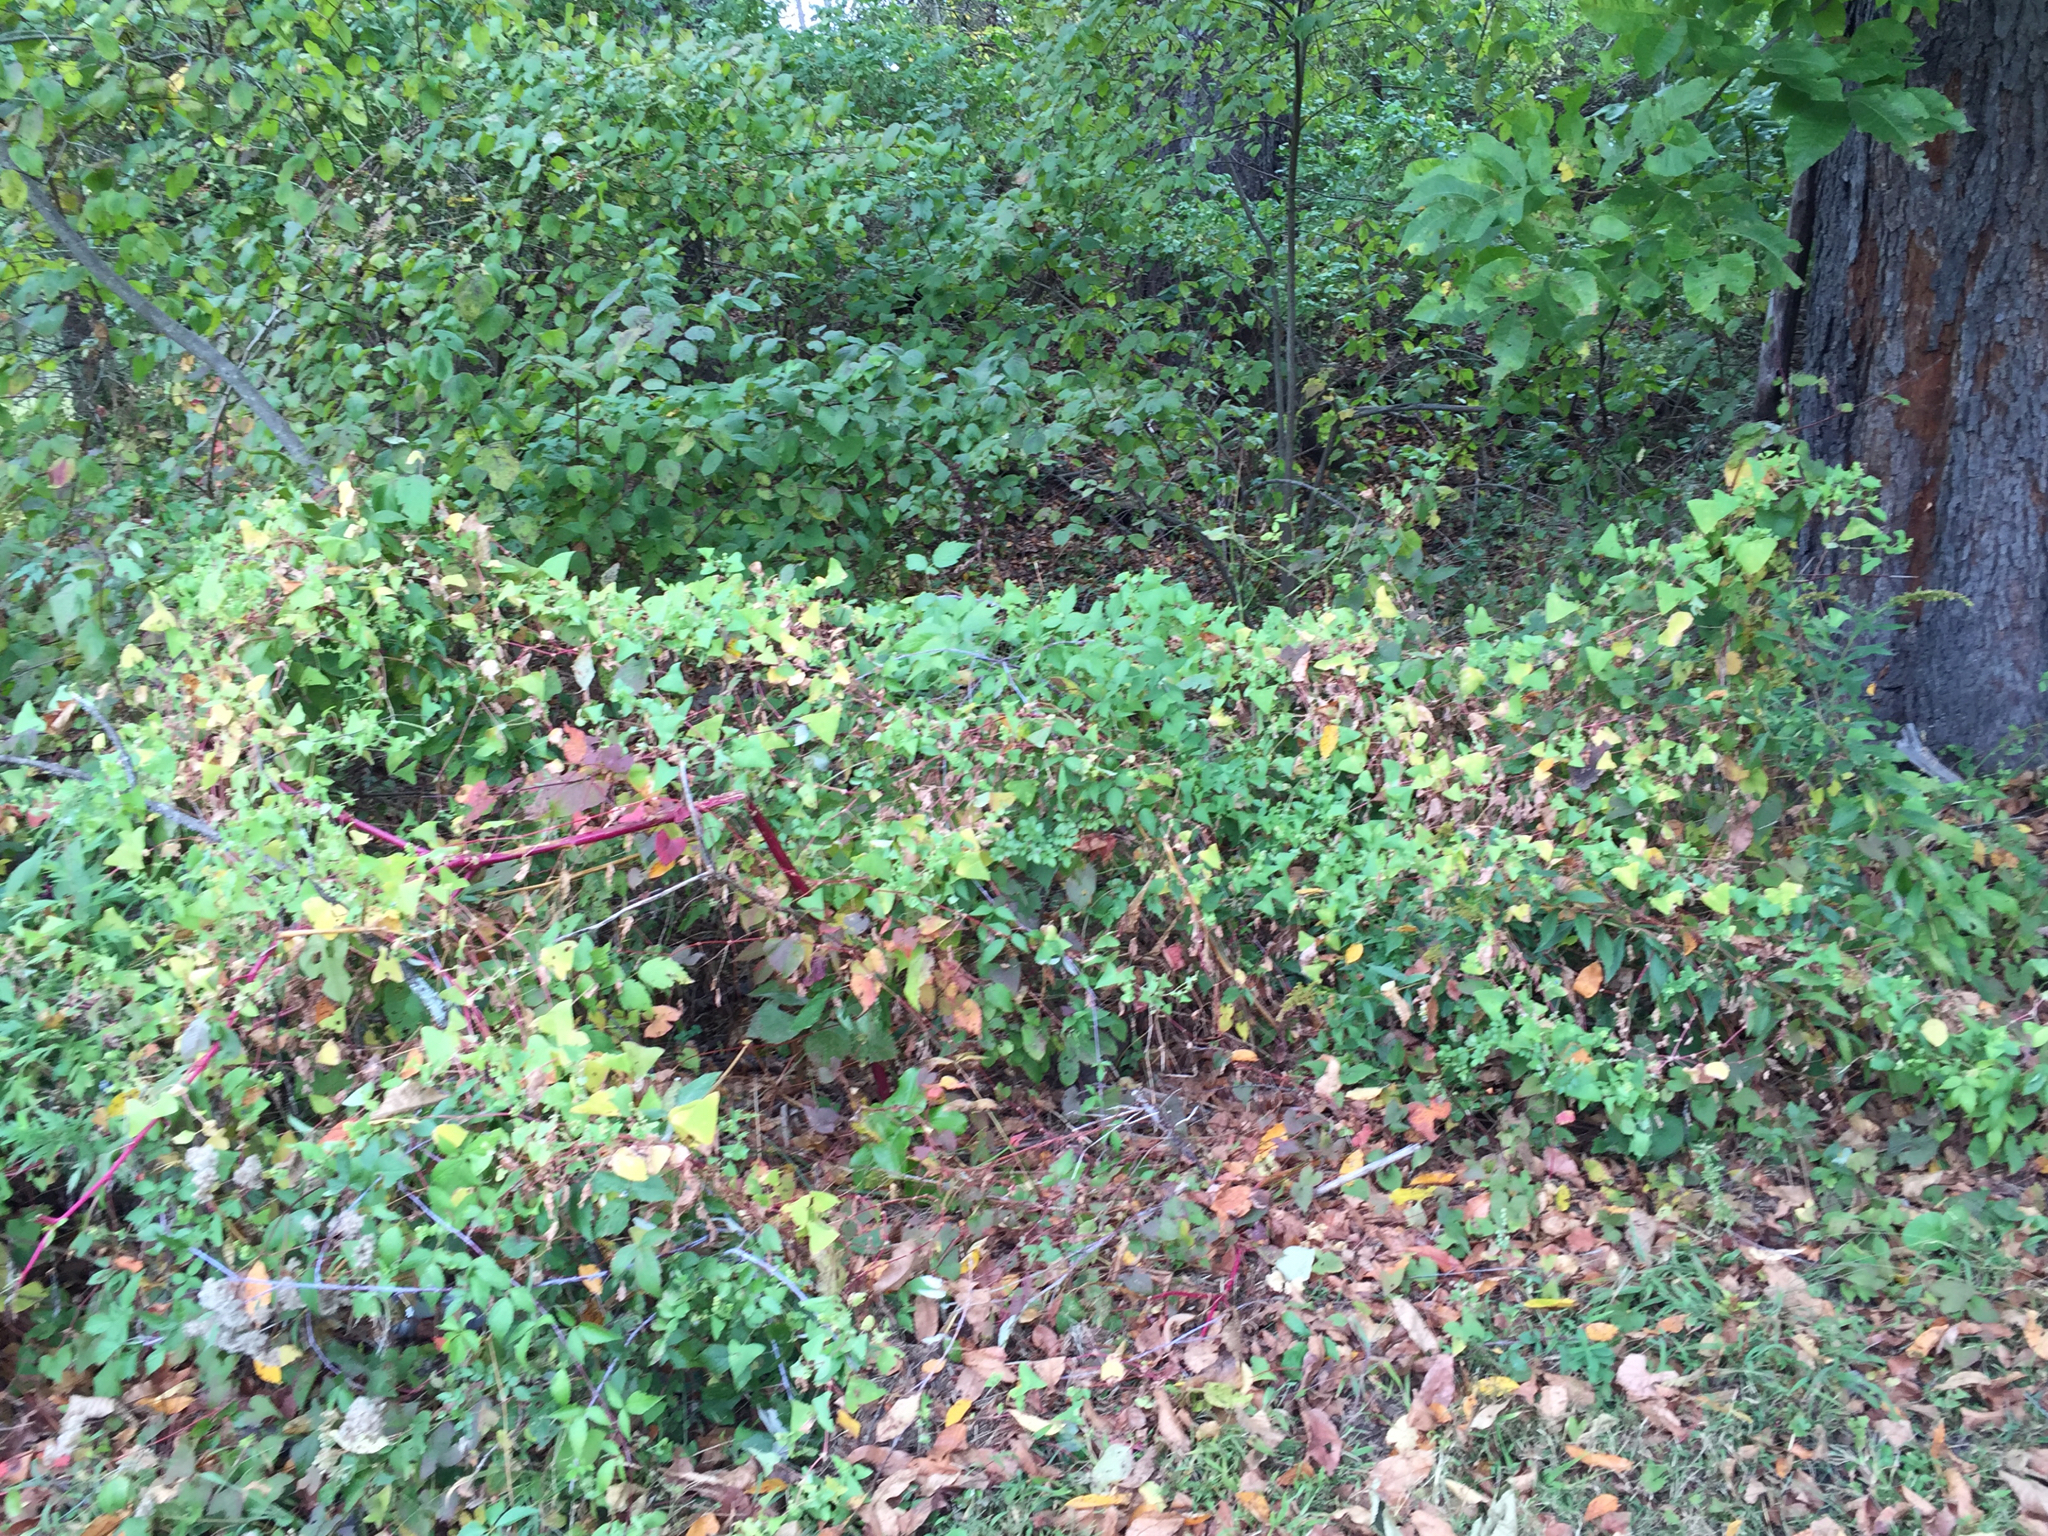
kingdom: Plantae
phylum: Tracheophyta
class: Magnoliopsida
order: Caryophyllales
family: Polygonaceae
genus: Persicaria
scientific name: Persicaria perfoliata
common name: Asiatic tearthumb
